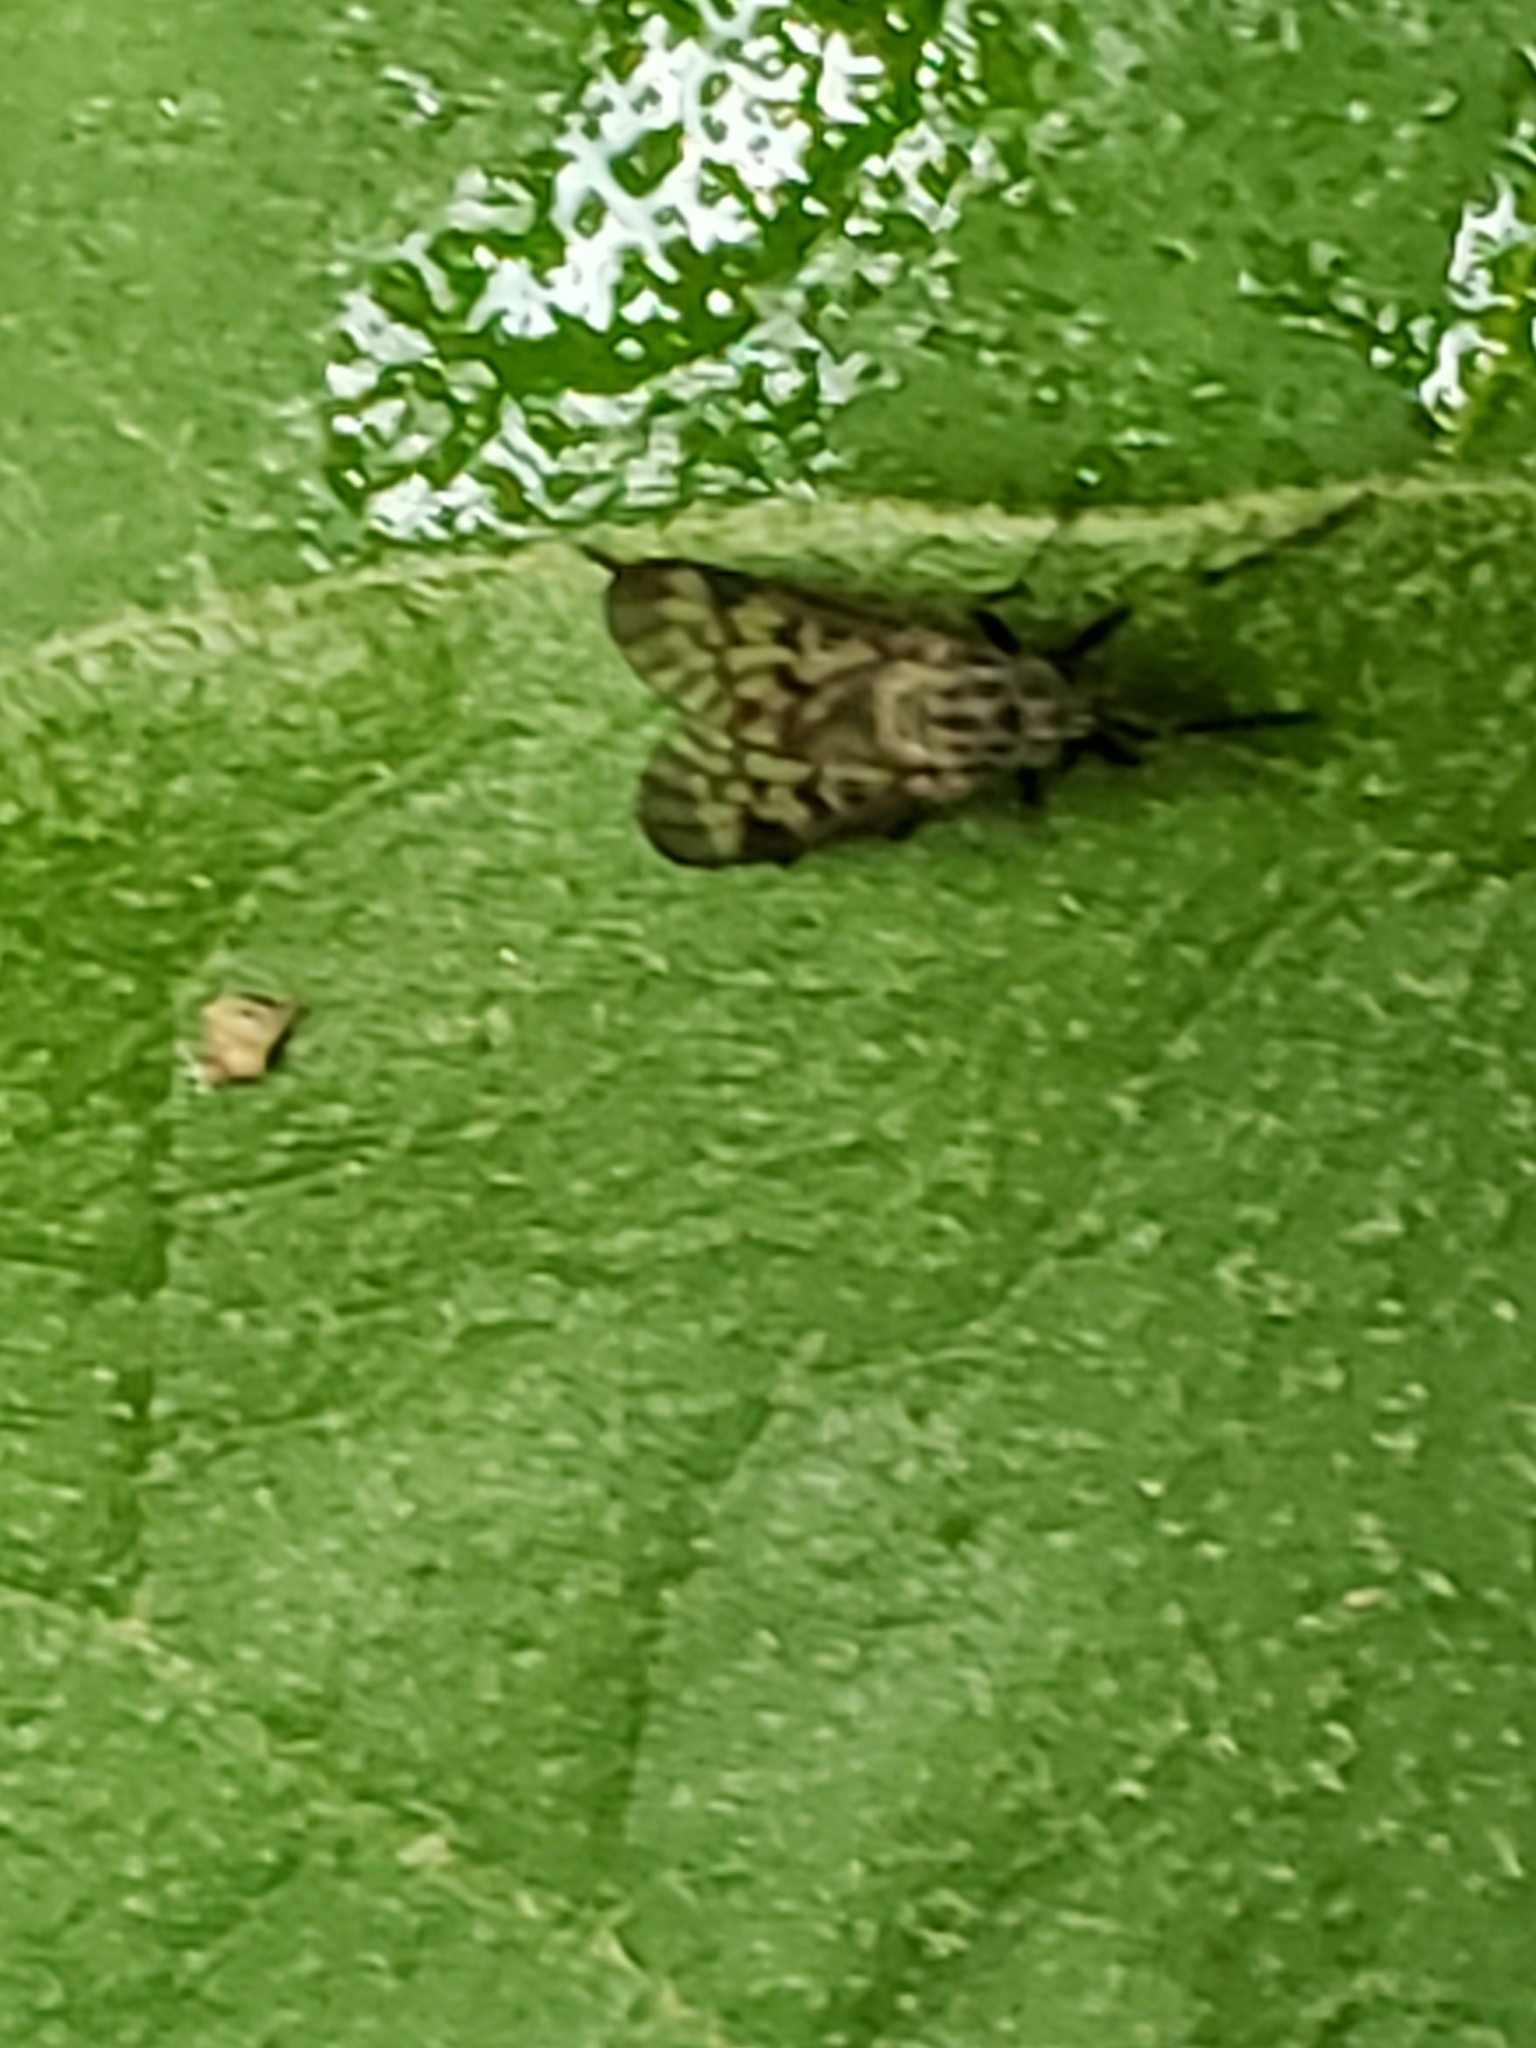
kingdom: Animalia
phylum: Arthropoda
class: Insecta
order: Diptera
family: Rhagionidae
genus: Rhagio
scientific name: Rhagio punctipennis
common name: Lesser variegated snipe fly
